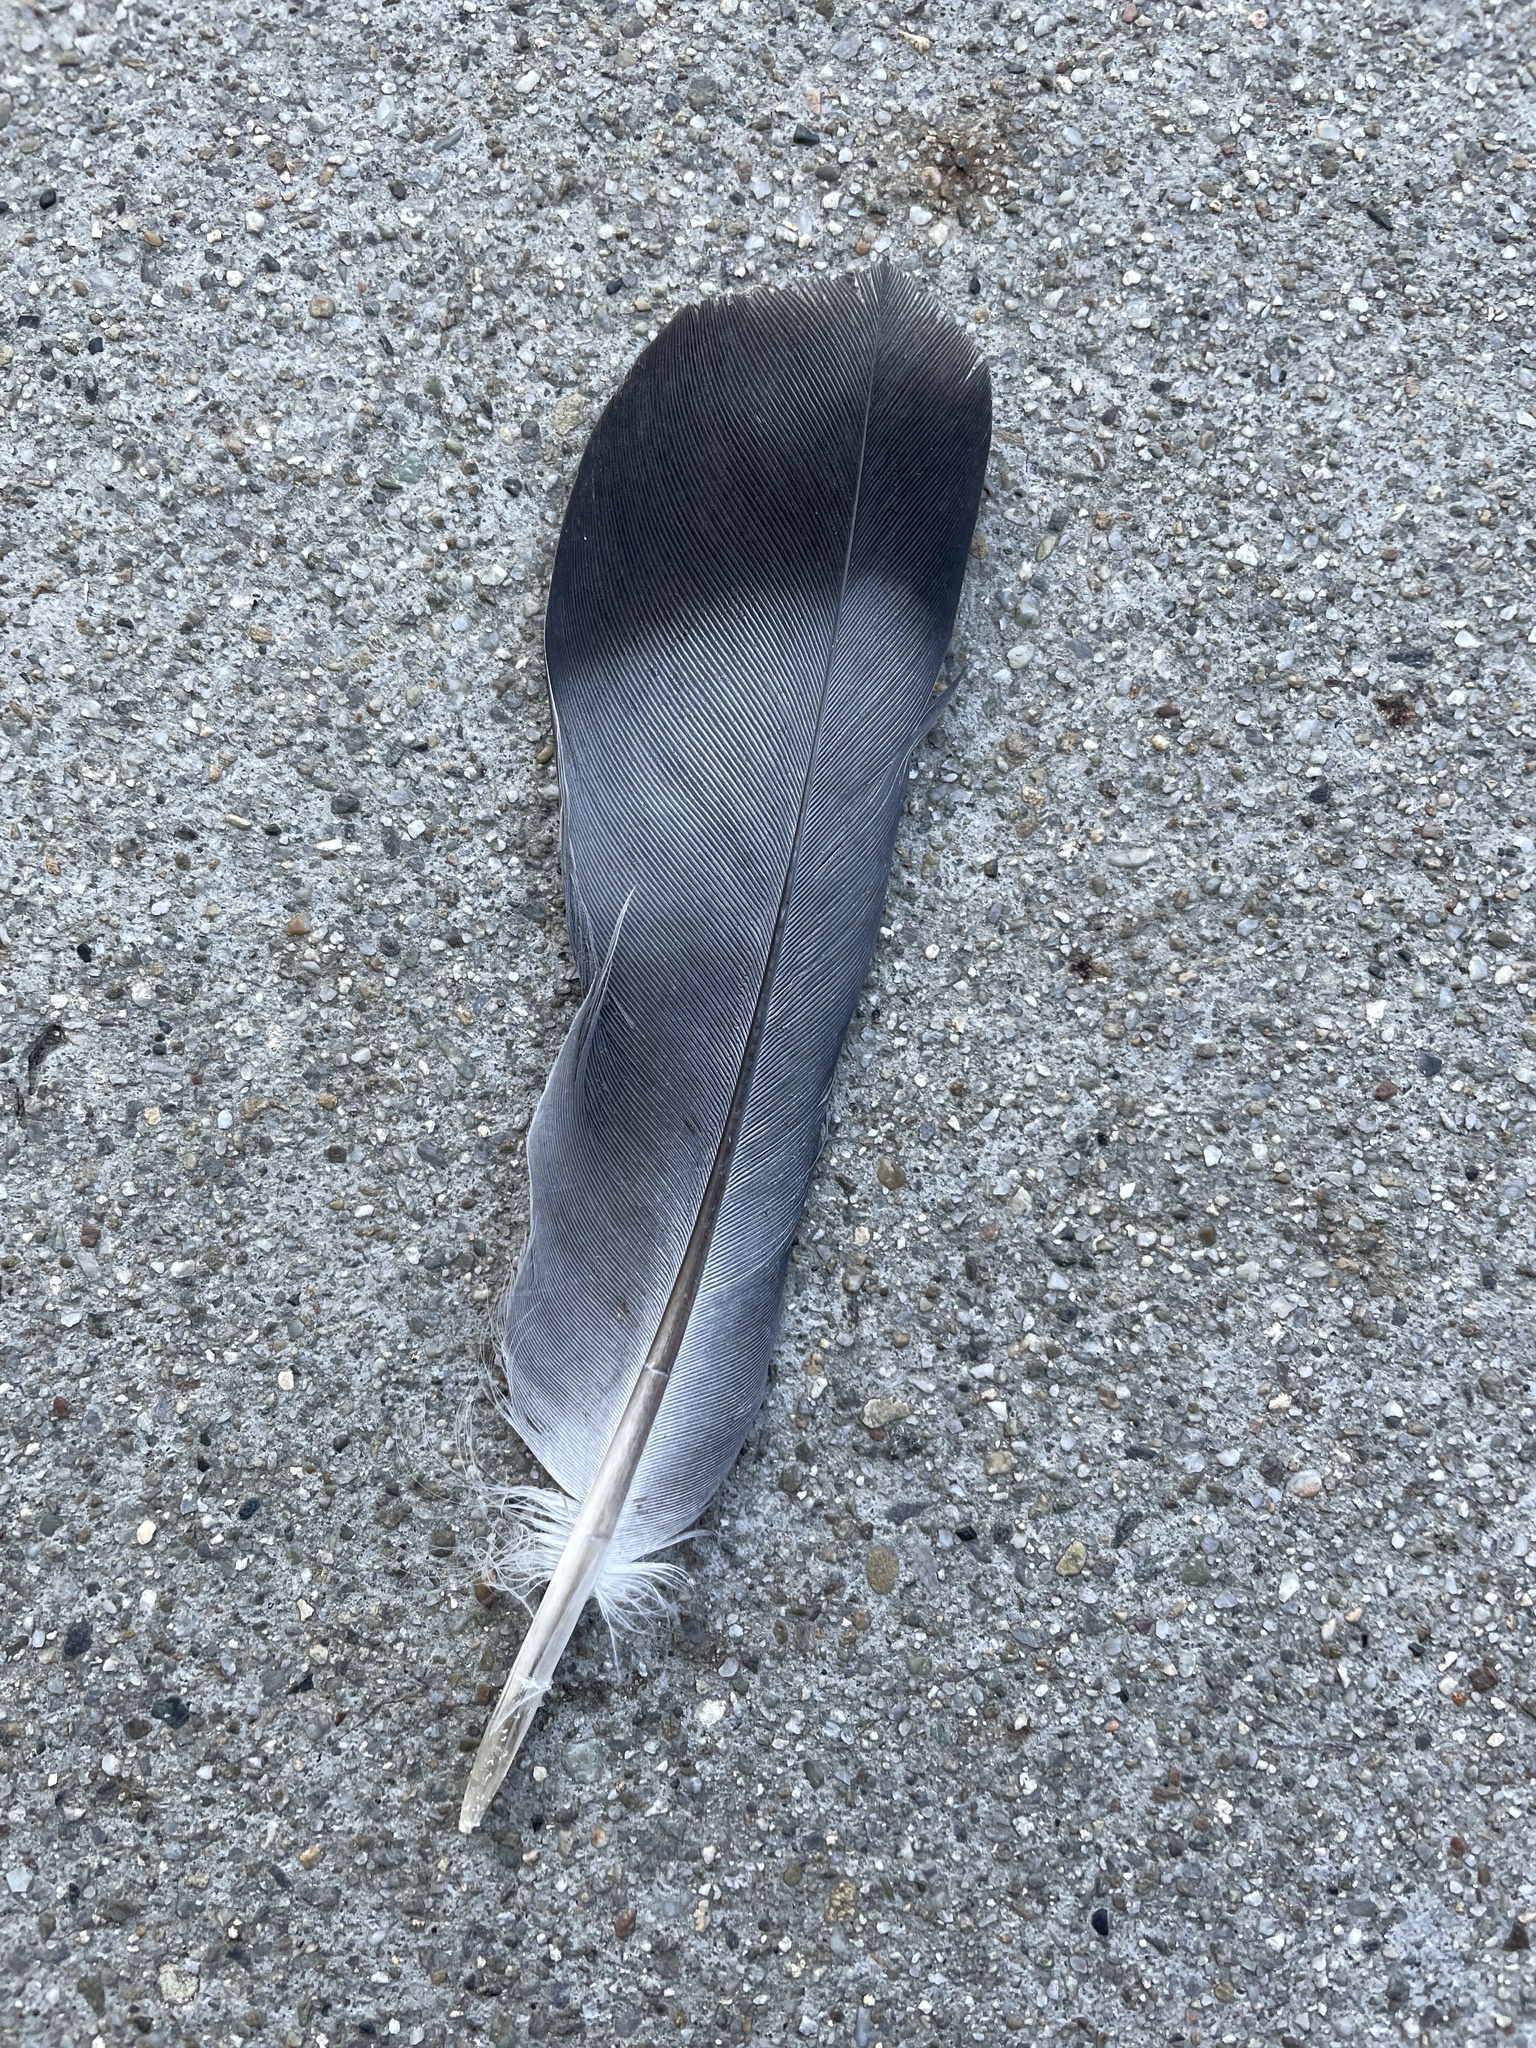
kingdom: Animalia
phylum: Chordata
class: Aves
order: Columbiformes
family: Columbidae
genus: Columba
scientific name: Columba livia
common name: Rock pigeon
